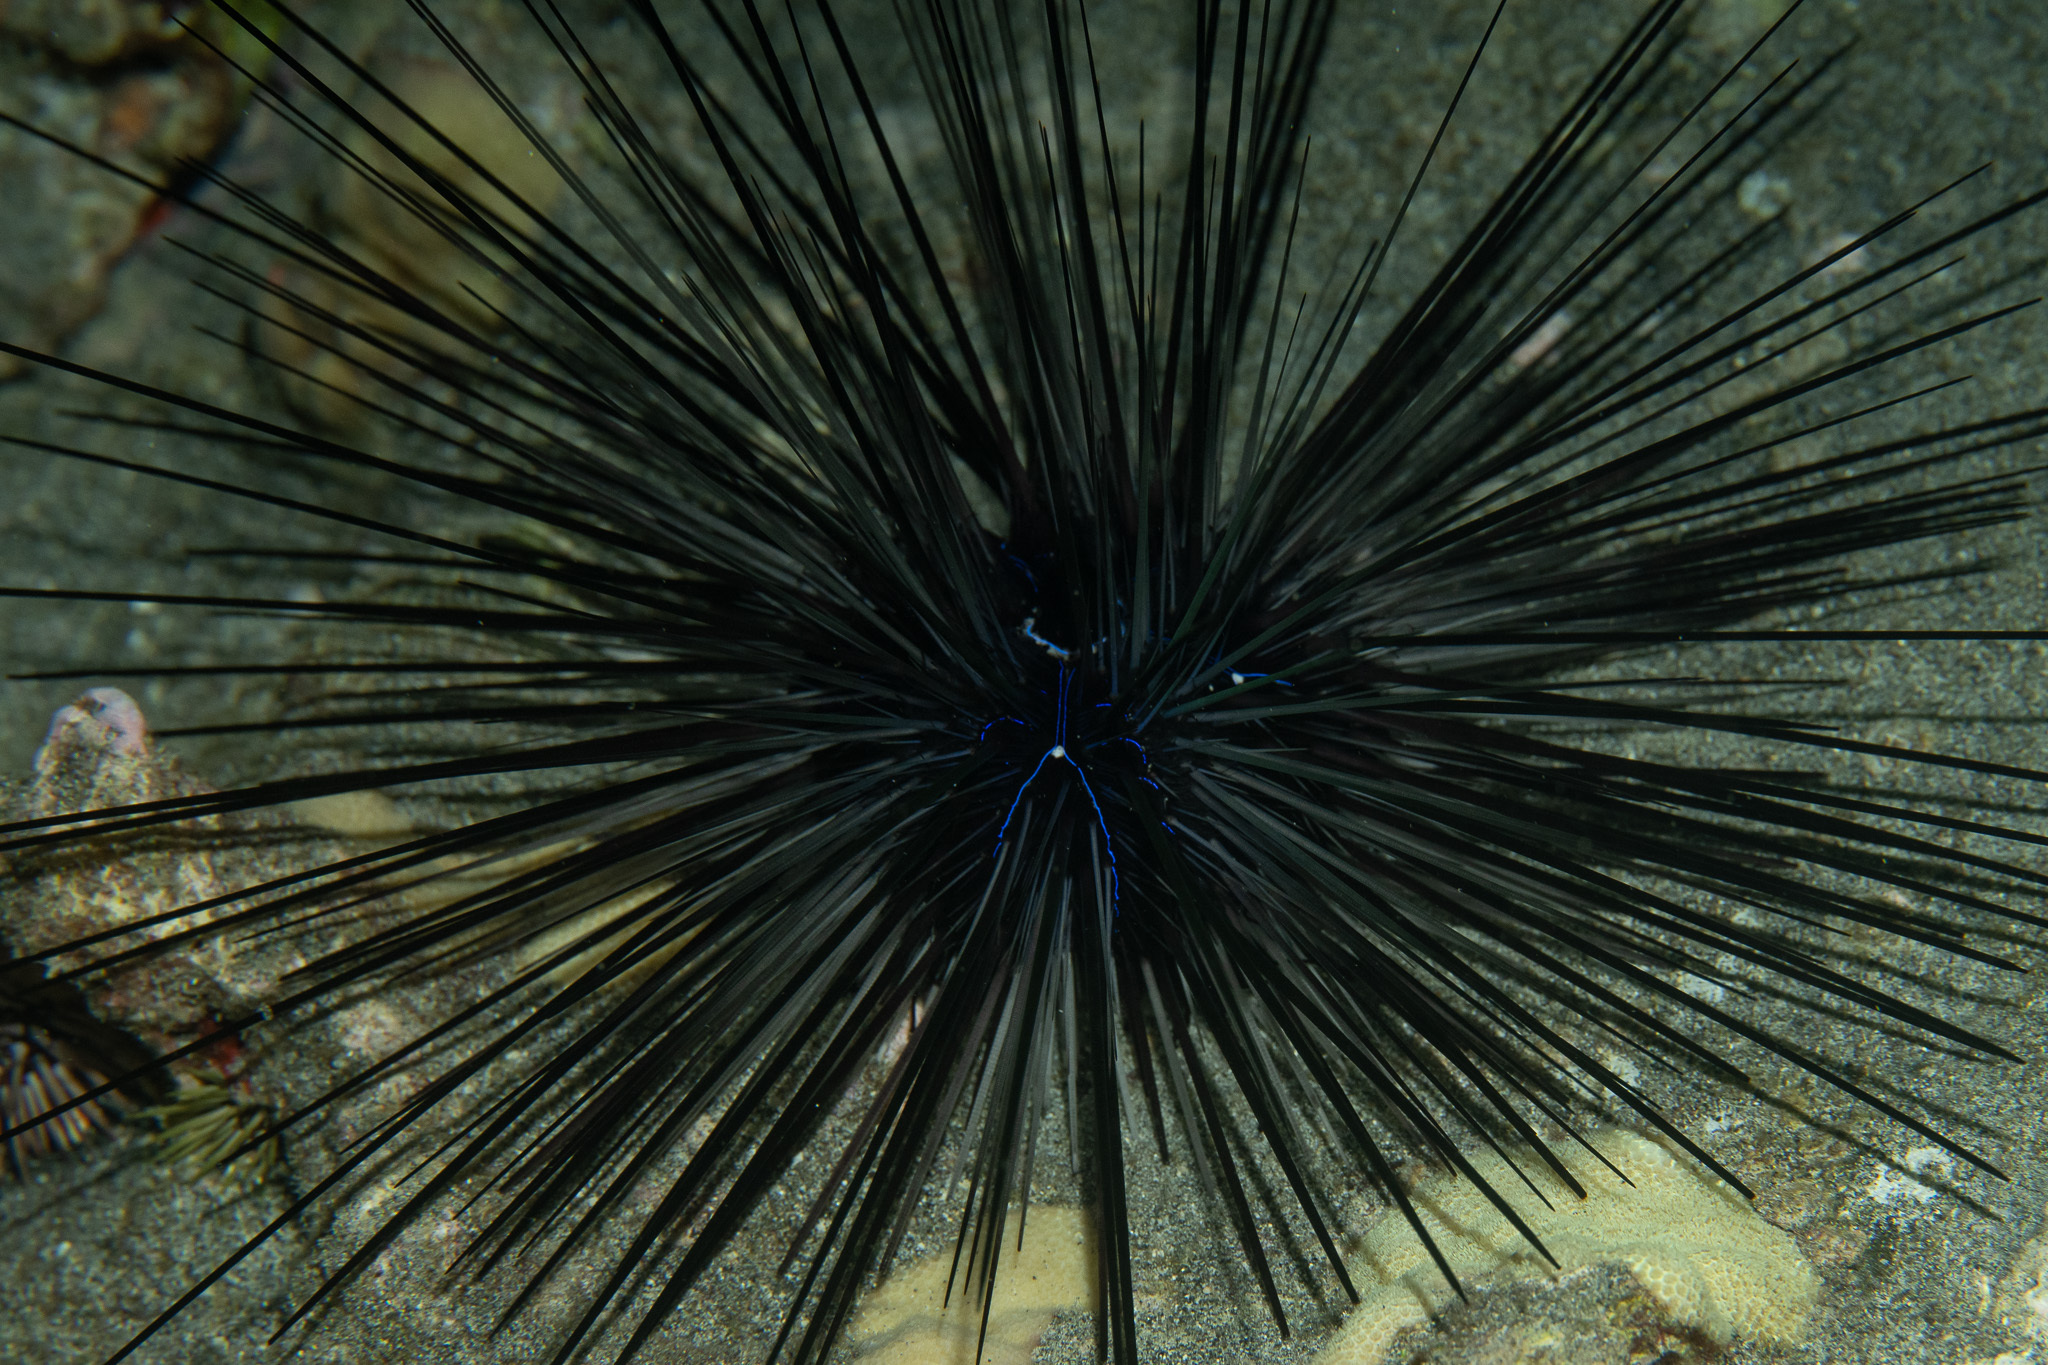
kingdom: Animalia
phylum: Echinodermata
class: Echinoidea
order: Diadematoida
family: Diadematidae
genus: Diadema
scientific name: Diadema savignyi
